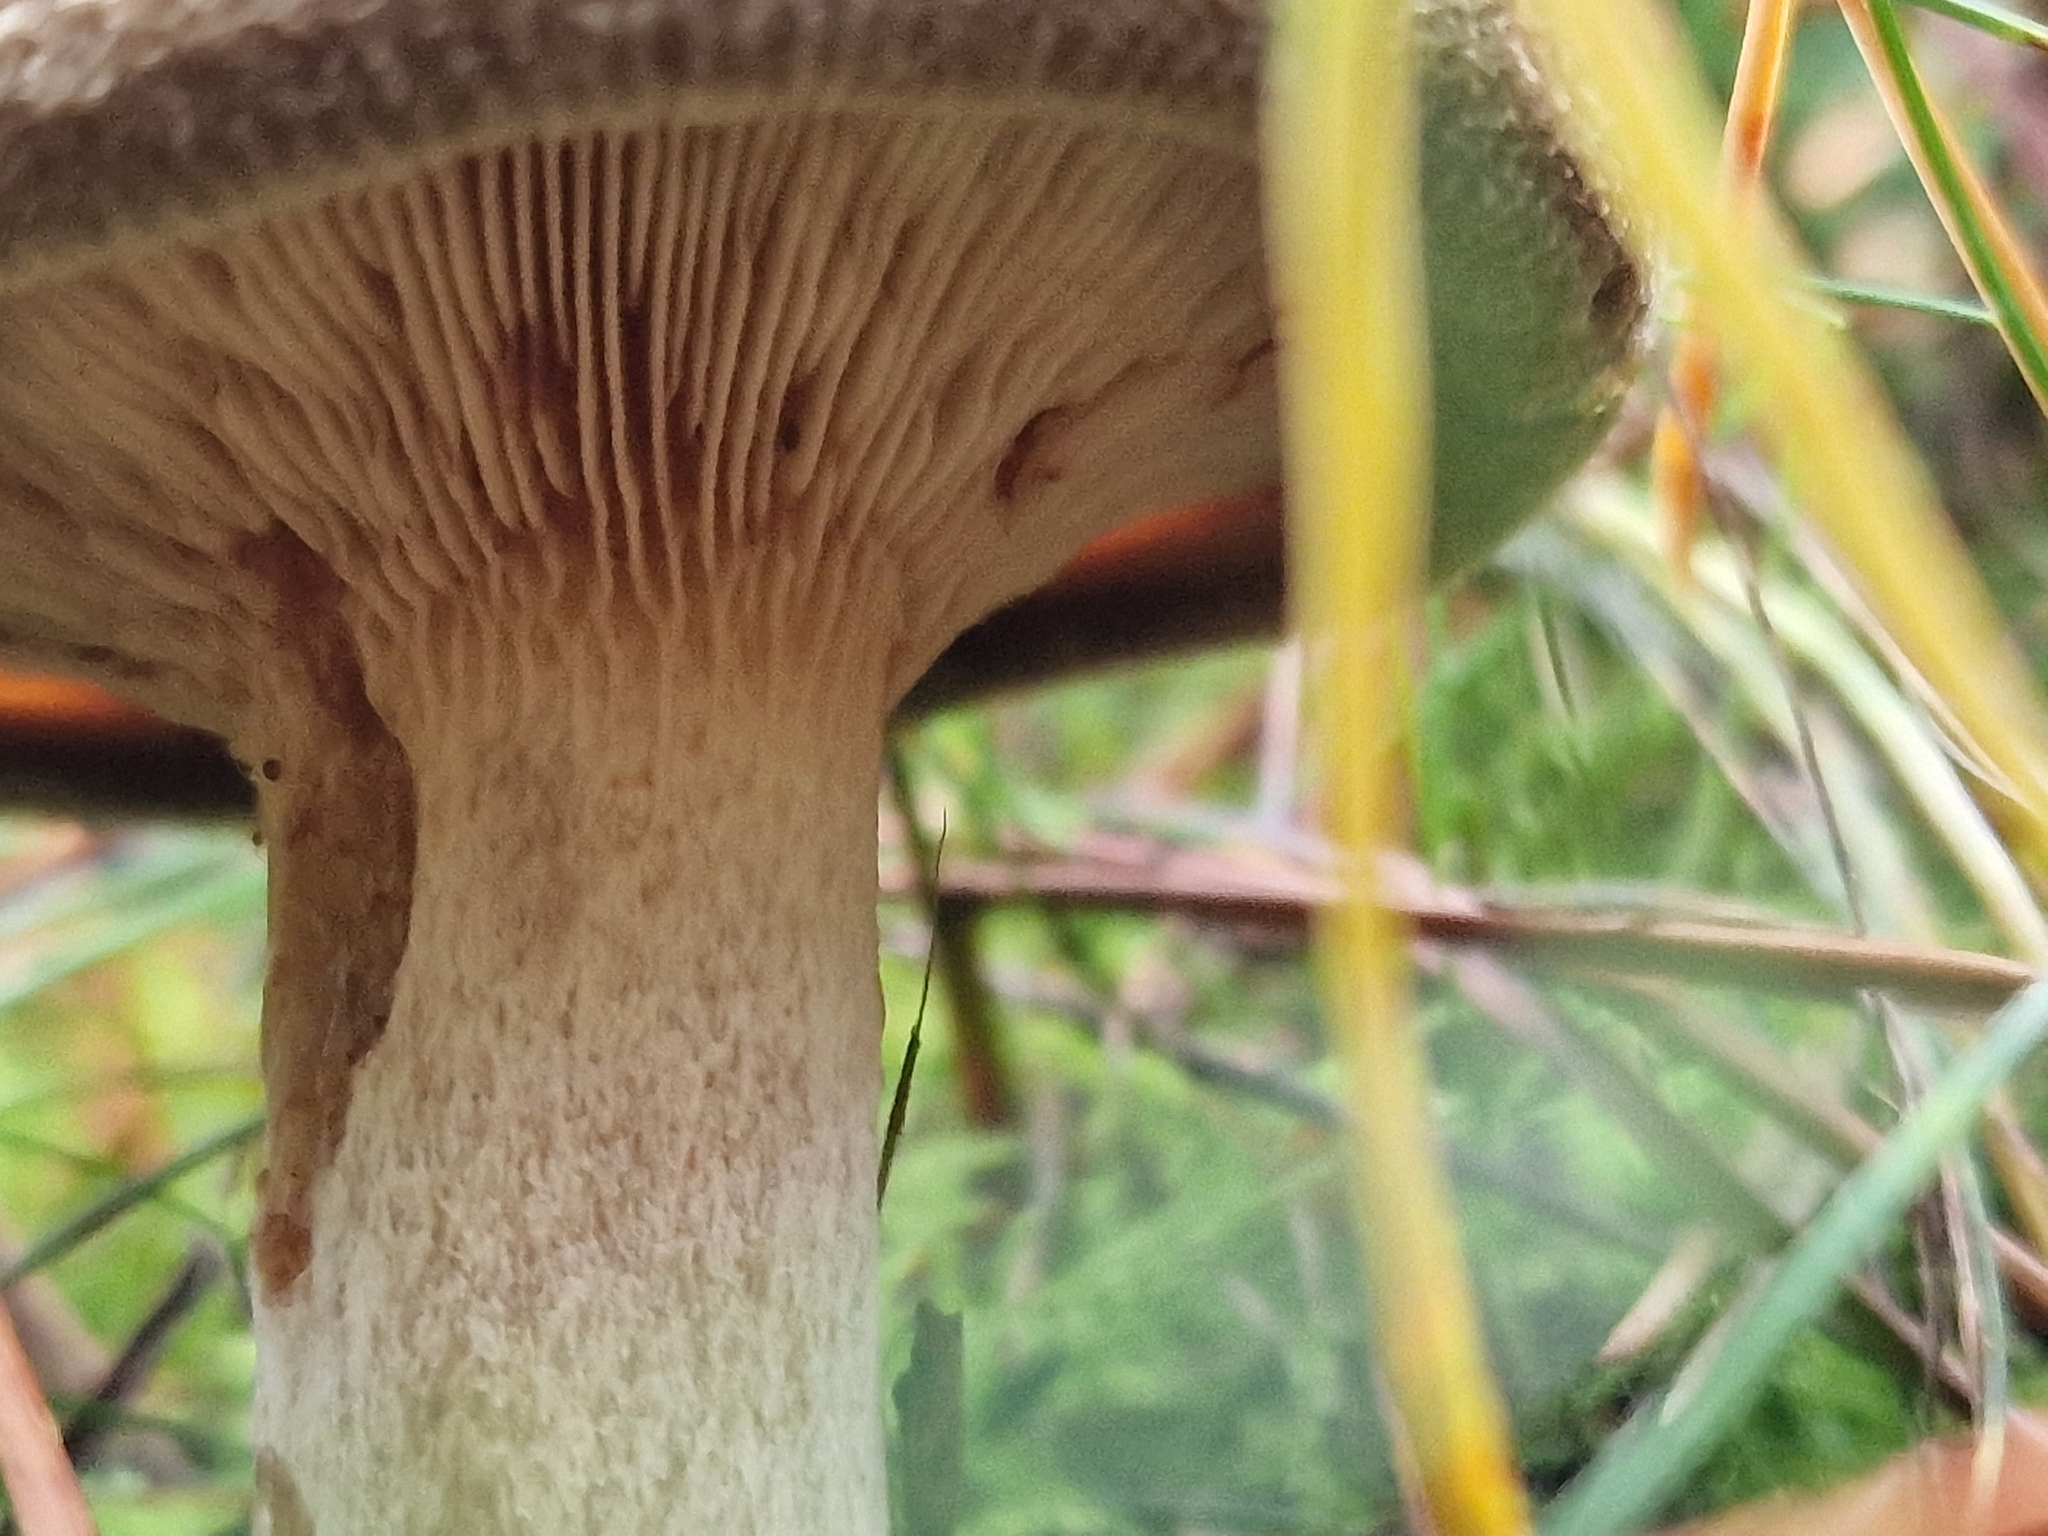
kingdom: Fungi
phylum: Basidiomycota
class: Agaricomycetes
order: Boletales
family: Paxillaceae
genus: Paxillus
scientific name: Paxillus involutus
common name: Brown roll rim
